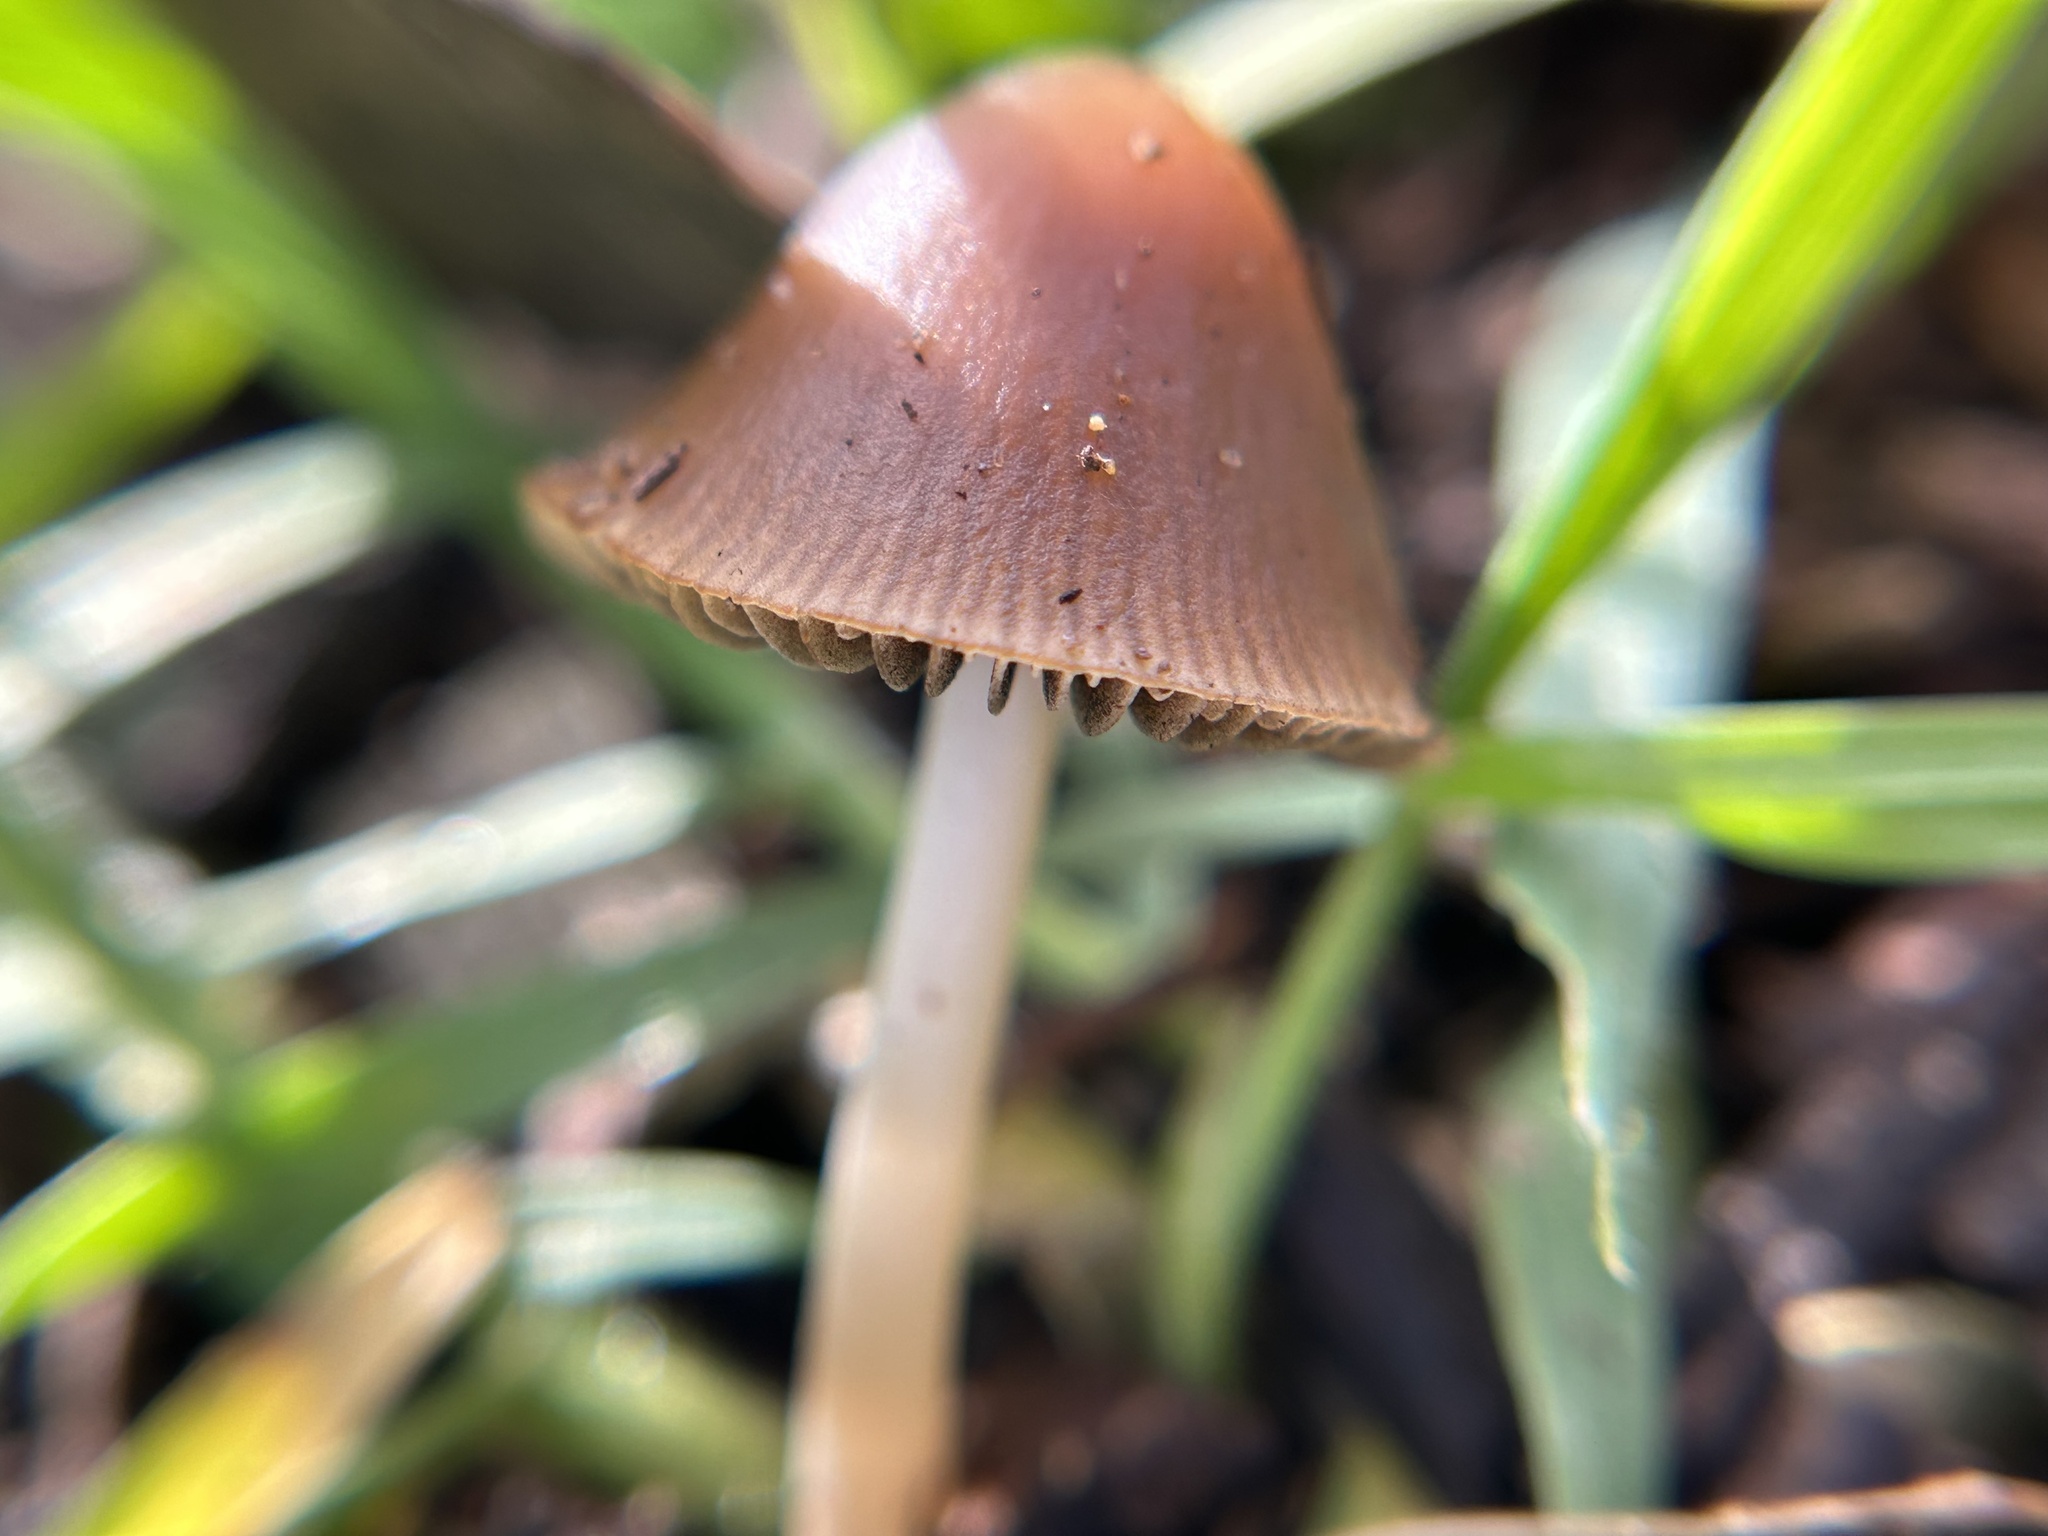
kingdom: Fungi
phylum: Basidiomycota
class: Agaricomycetes
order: Agaricales
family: Psathyrellaceae
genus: Parasola
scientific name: Parasola conopilea
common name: Conical brittlestem
